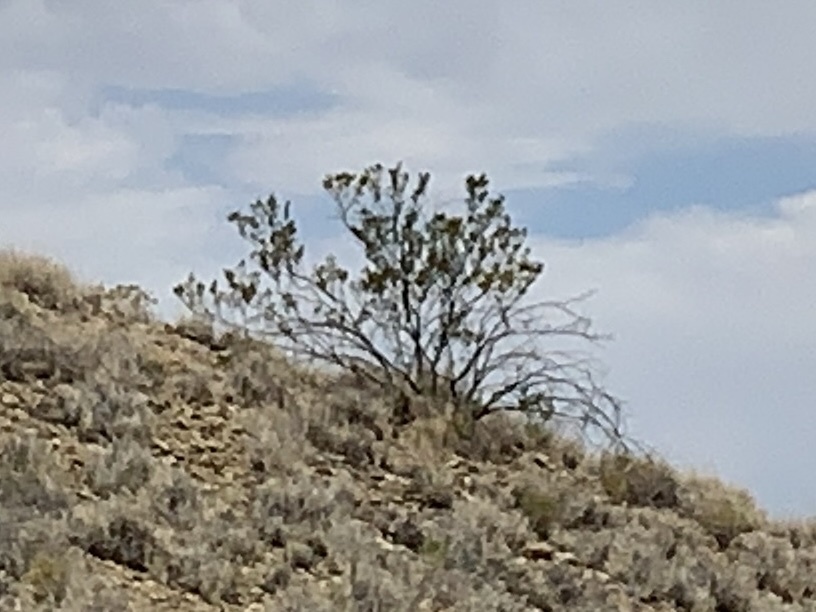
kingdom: Plantae
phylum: Tracheophyta
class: Magnoliopsida
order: Zygophyllales
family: Zygophyllaceae
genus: Larrea
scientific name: Larrea tridentata
